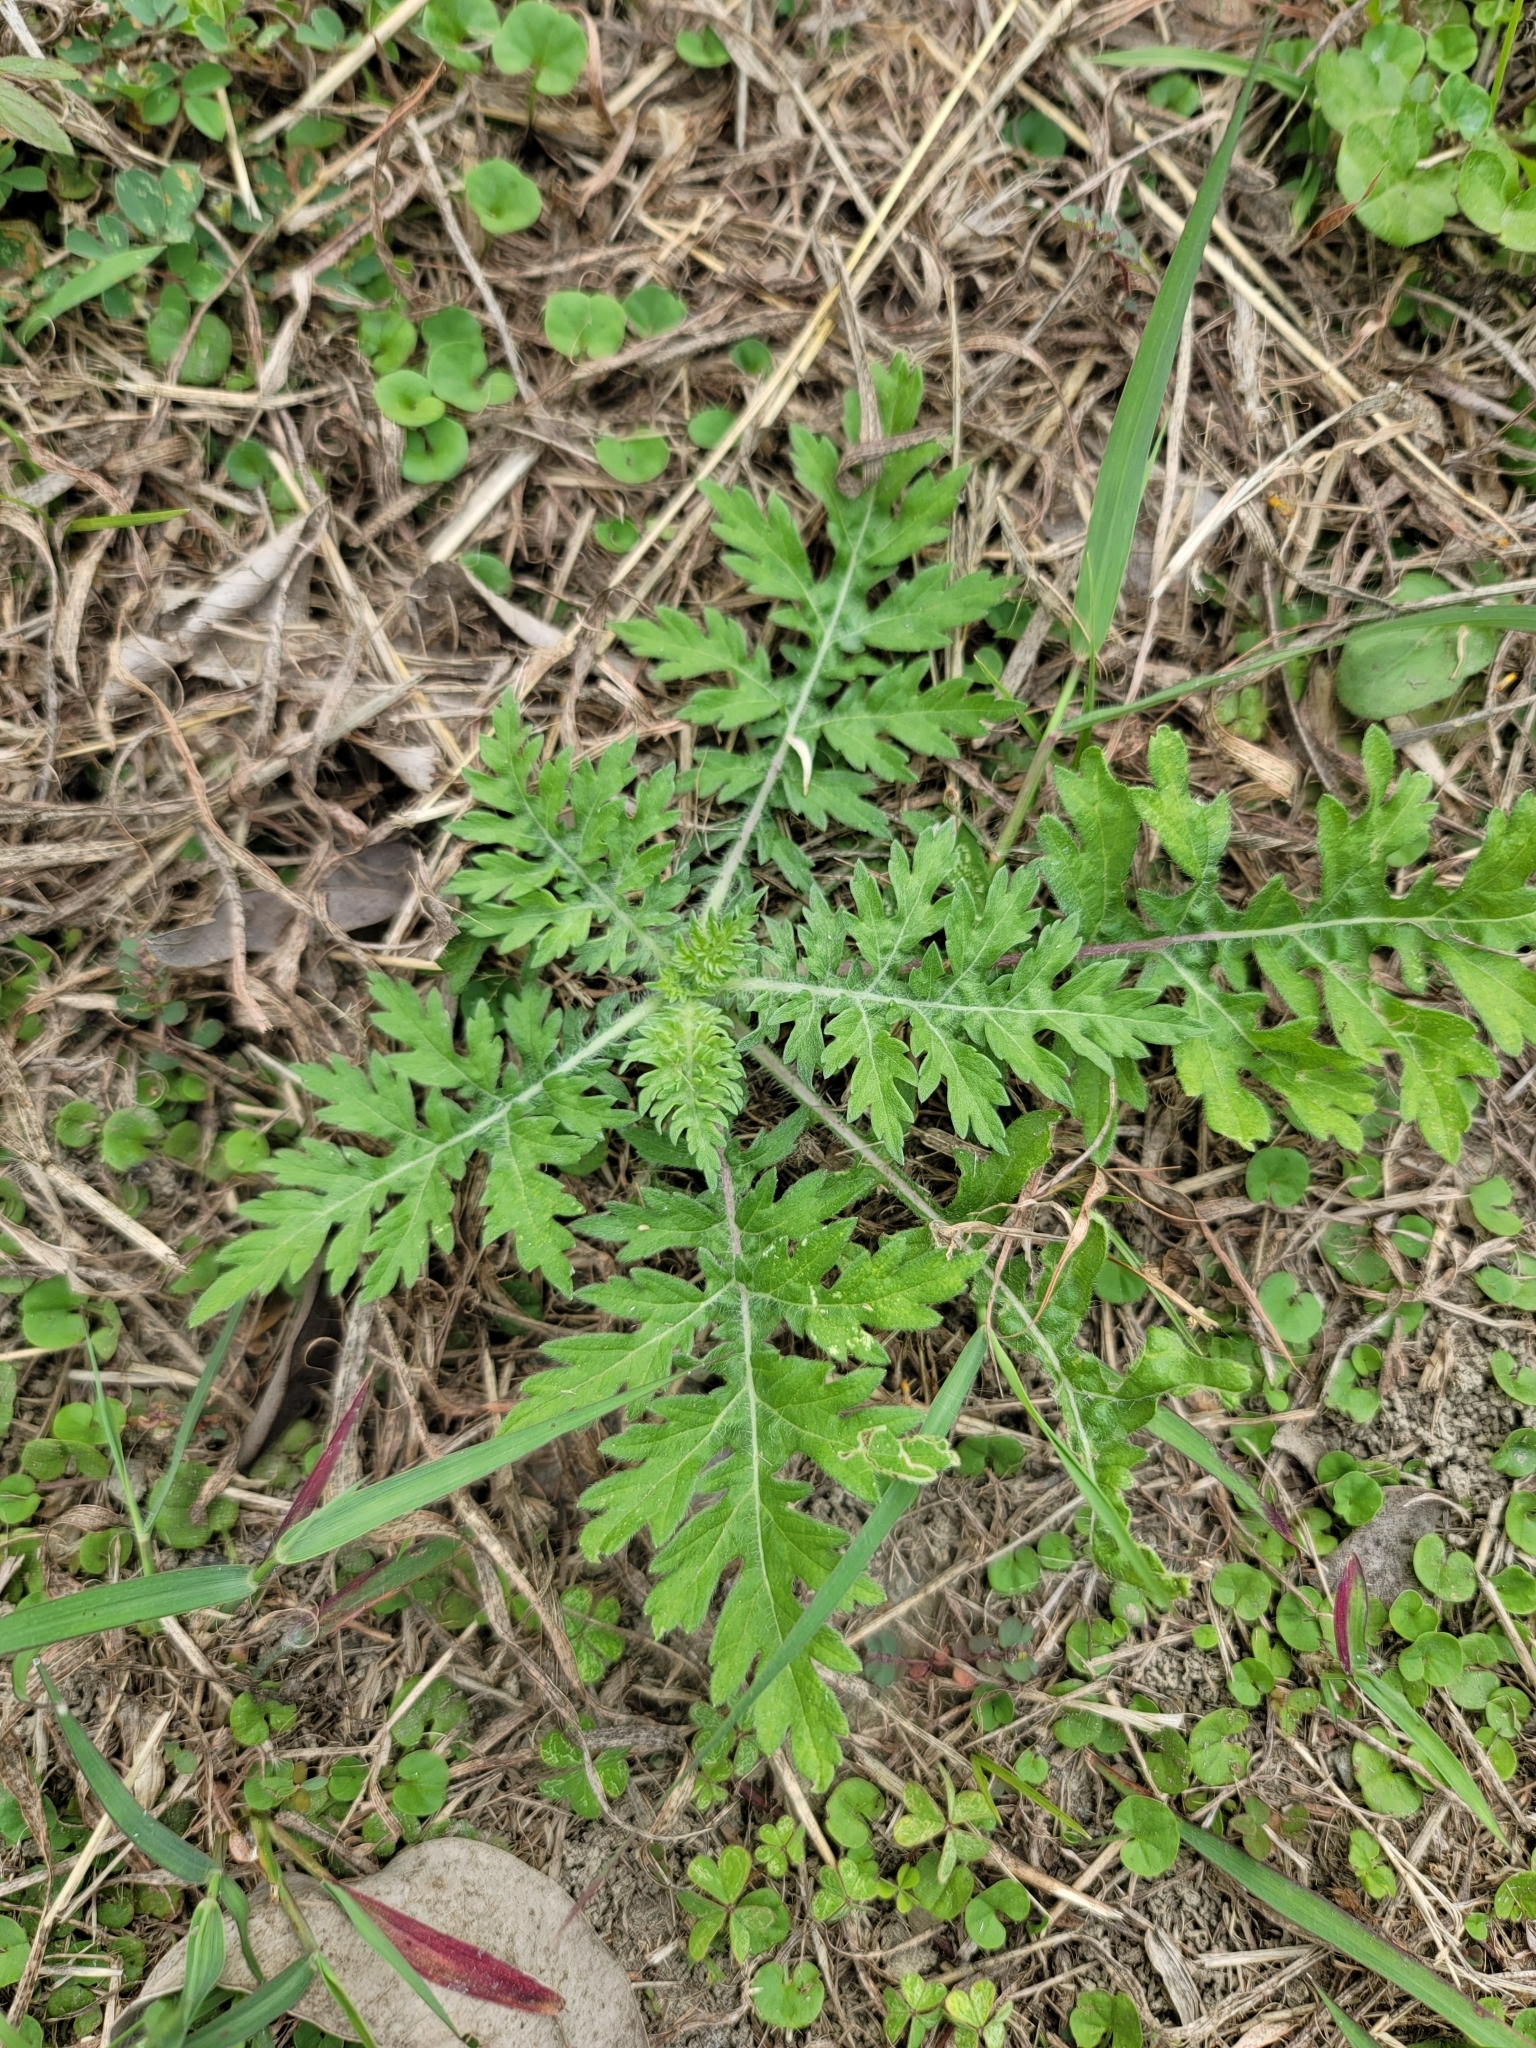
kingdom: Plantae
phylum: Tracheophyta
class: Magnoliopsida
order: Asterales
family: Asteraceae
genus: Parthenium
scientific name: Parthenium hysterophorus
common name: Santa maria feverfew
